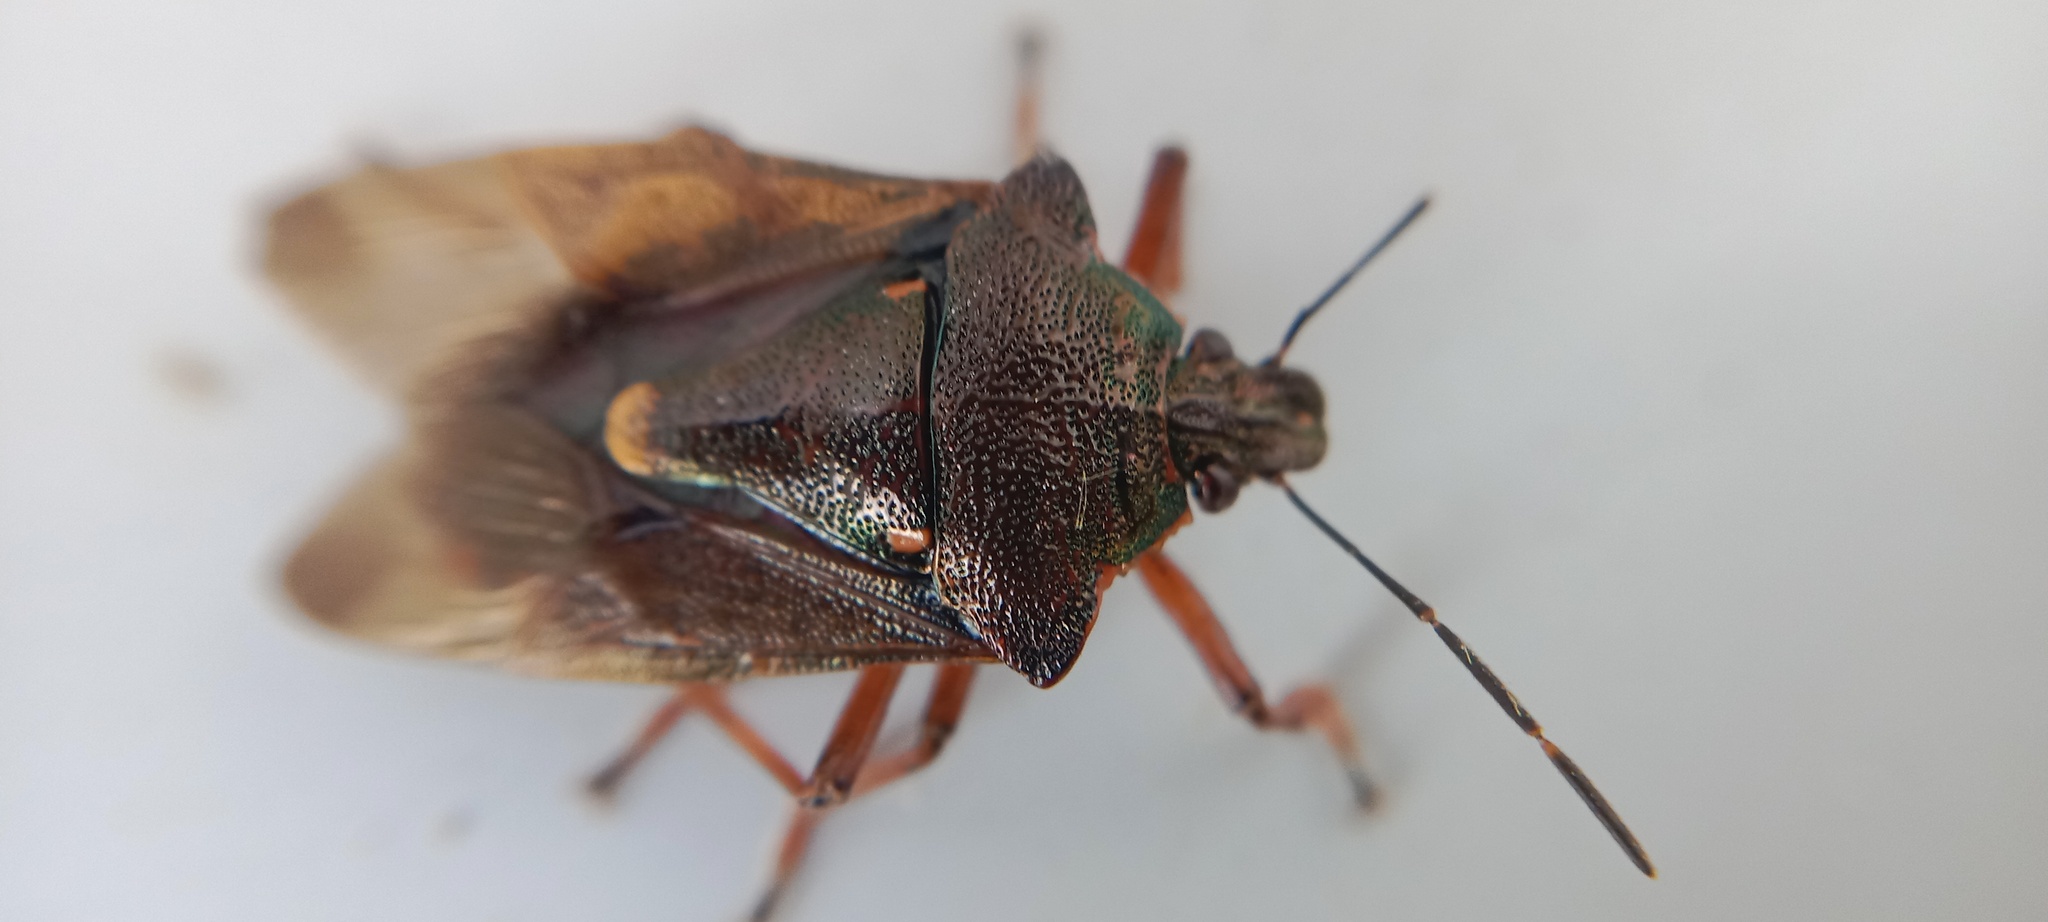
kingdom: Animalia
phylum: Arthropoda
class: Insecta
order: Hemiptera
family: Pentatomidae
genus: Pinthaeus
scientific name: Pinthaeus sanguinipes
